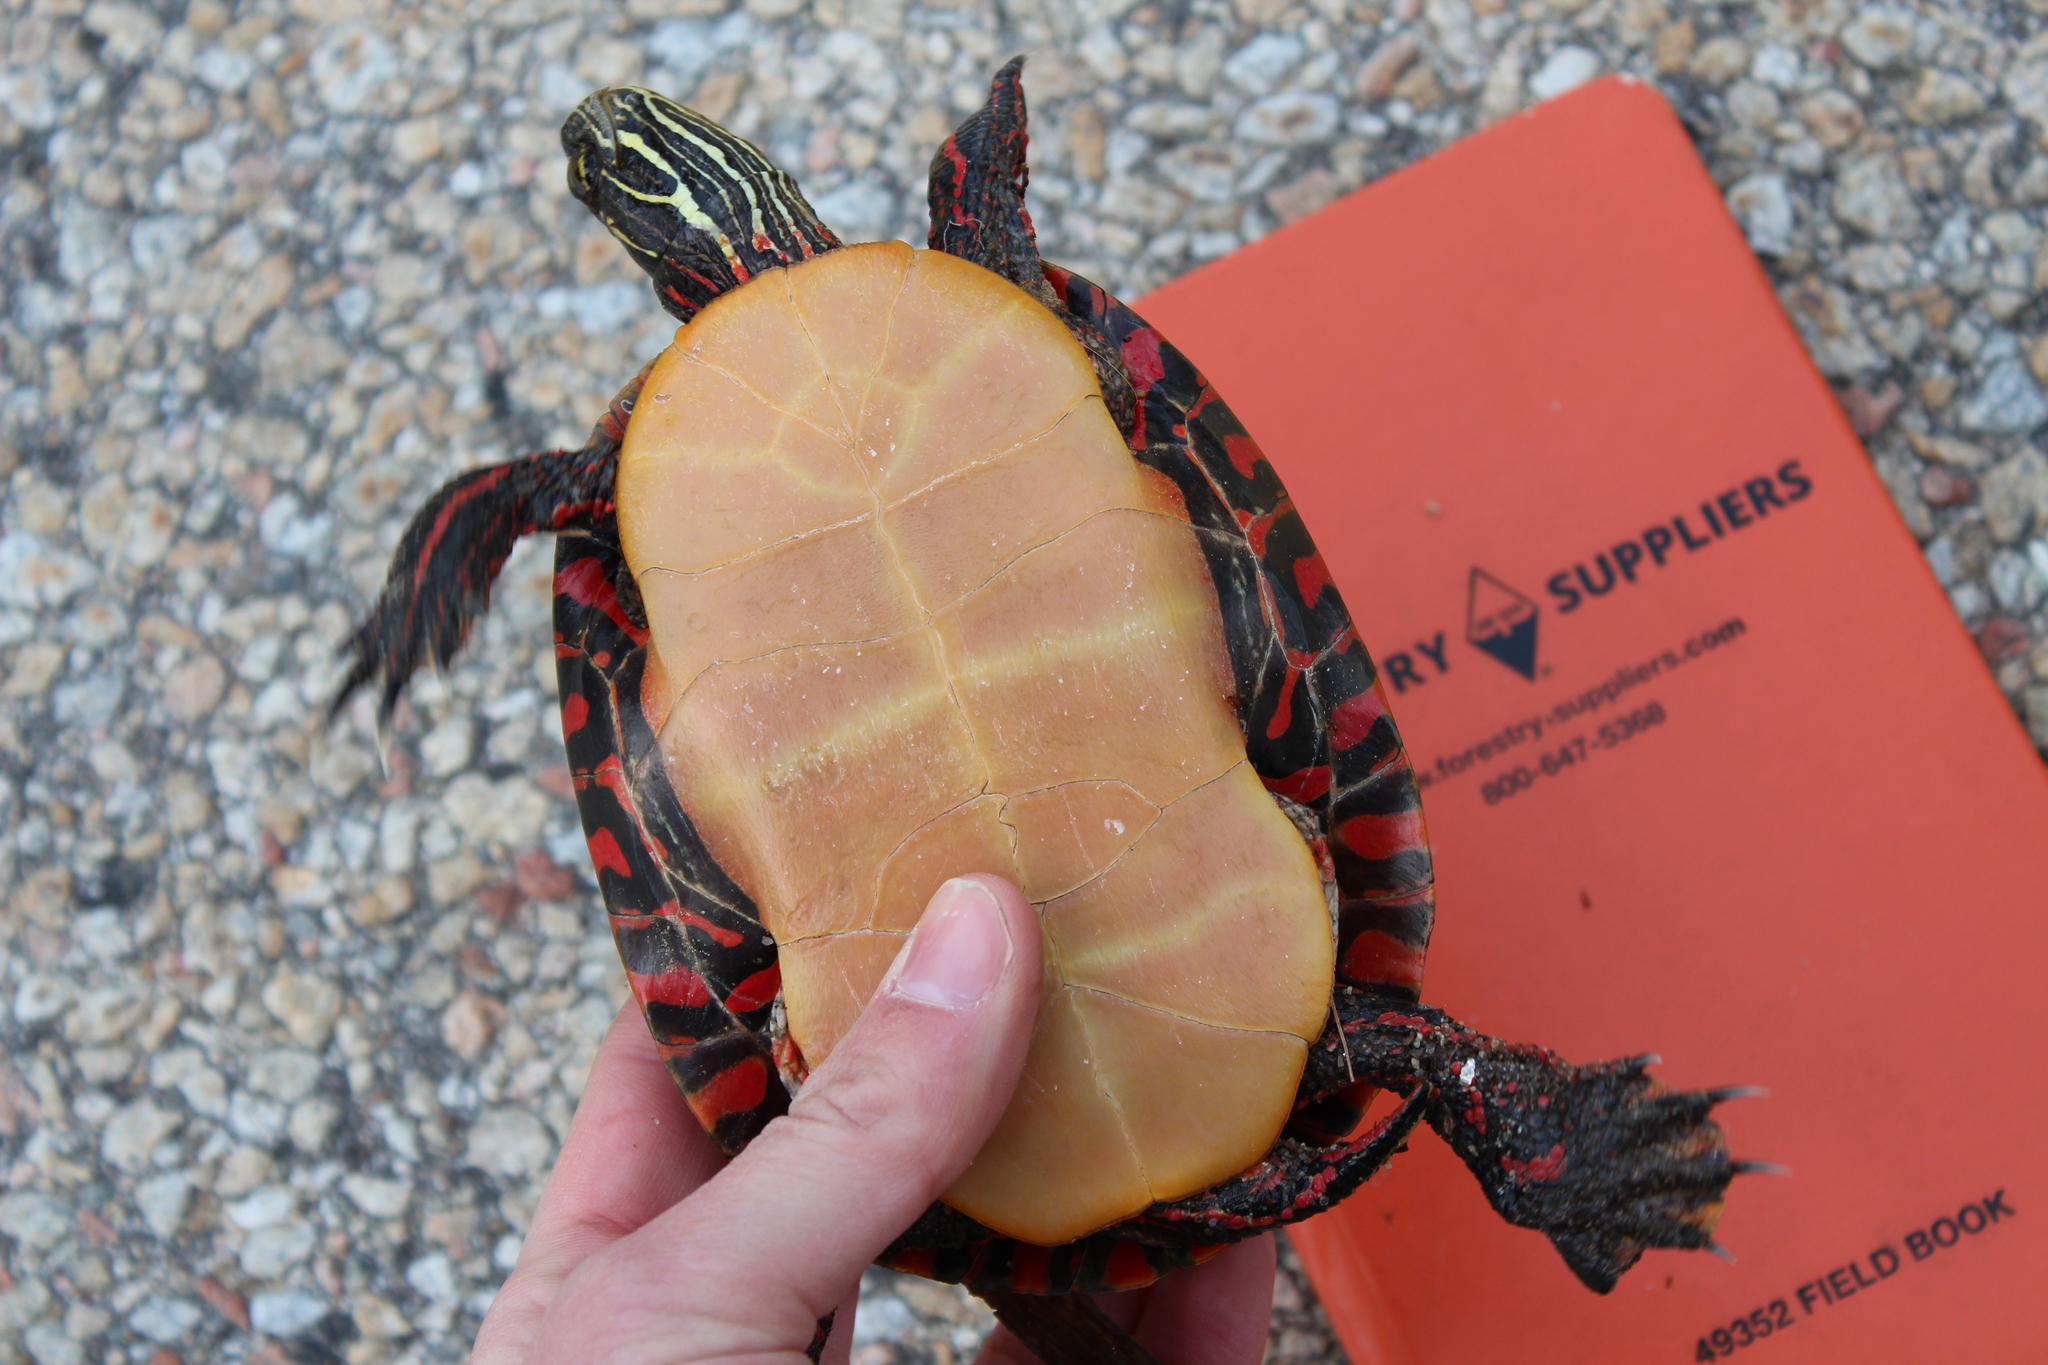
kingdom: Animalia
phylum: Chordata
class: Testudines
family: Emydidae
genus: Chrysemys
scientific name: Chrysemys picta
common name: Painted turtle
